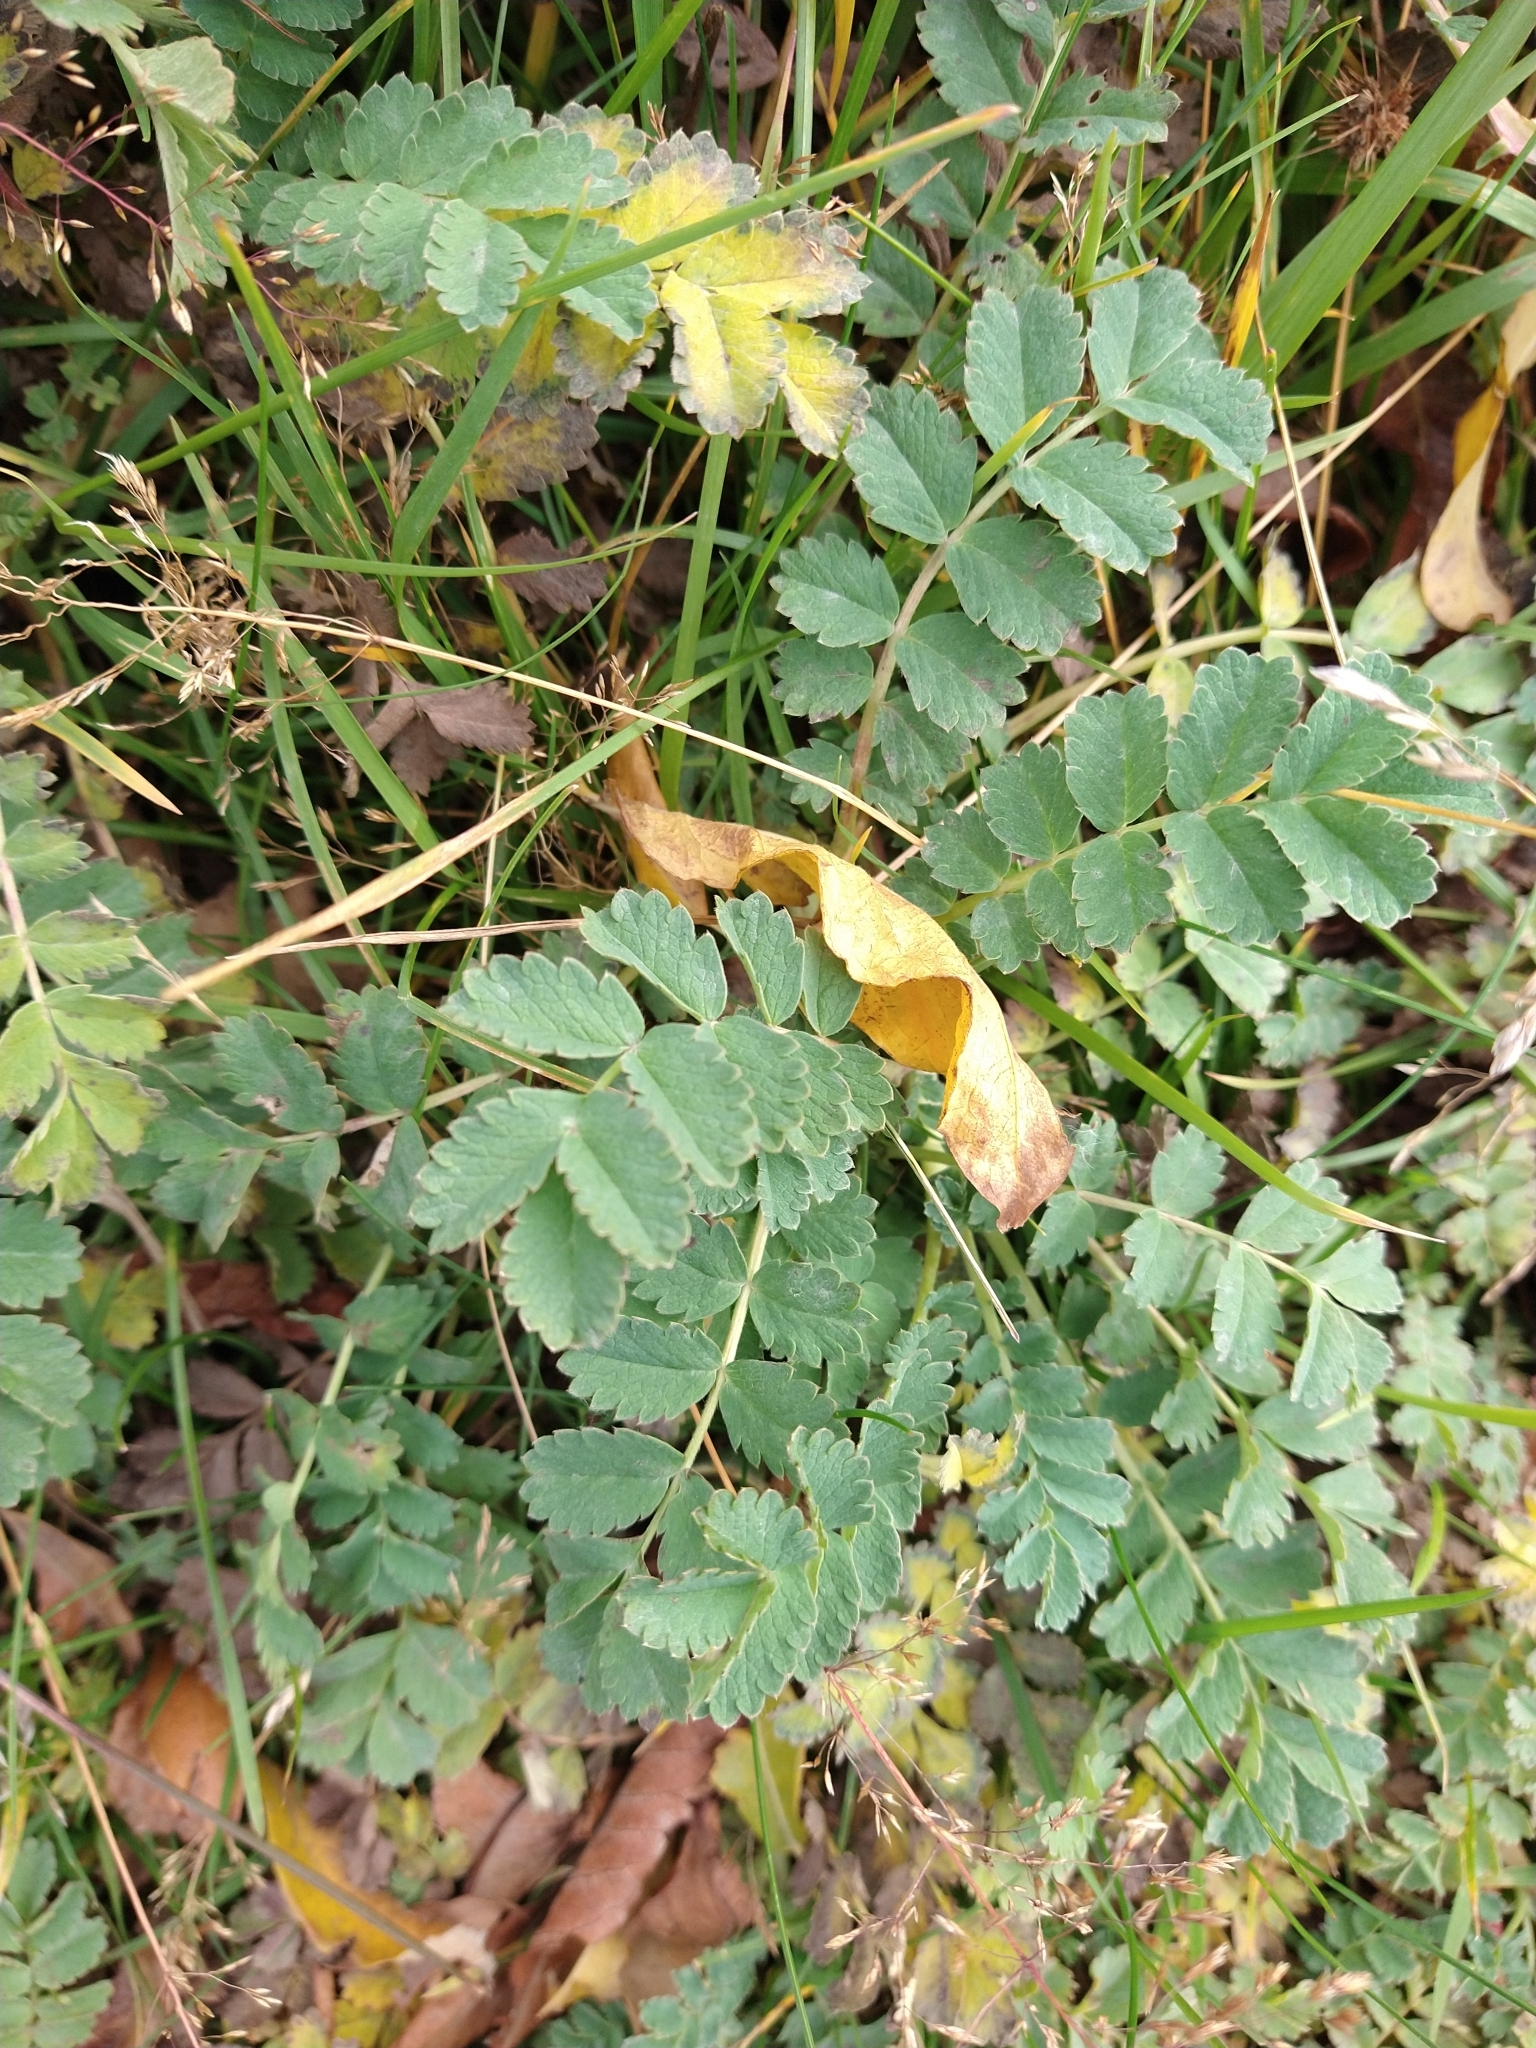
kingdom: Plantae
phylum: Tracheophyta
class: Magnoliopsida
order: Rosales
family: Rosaceae
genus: Acaena
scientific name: Acaena magellanica
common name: New zealand burr
